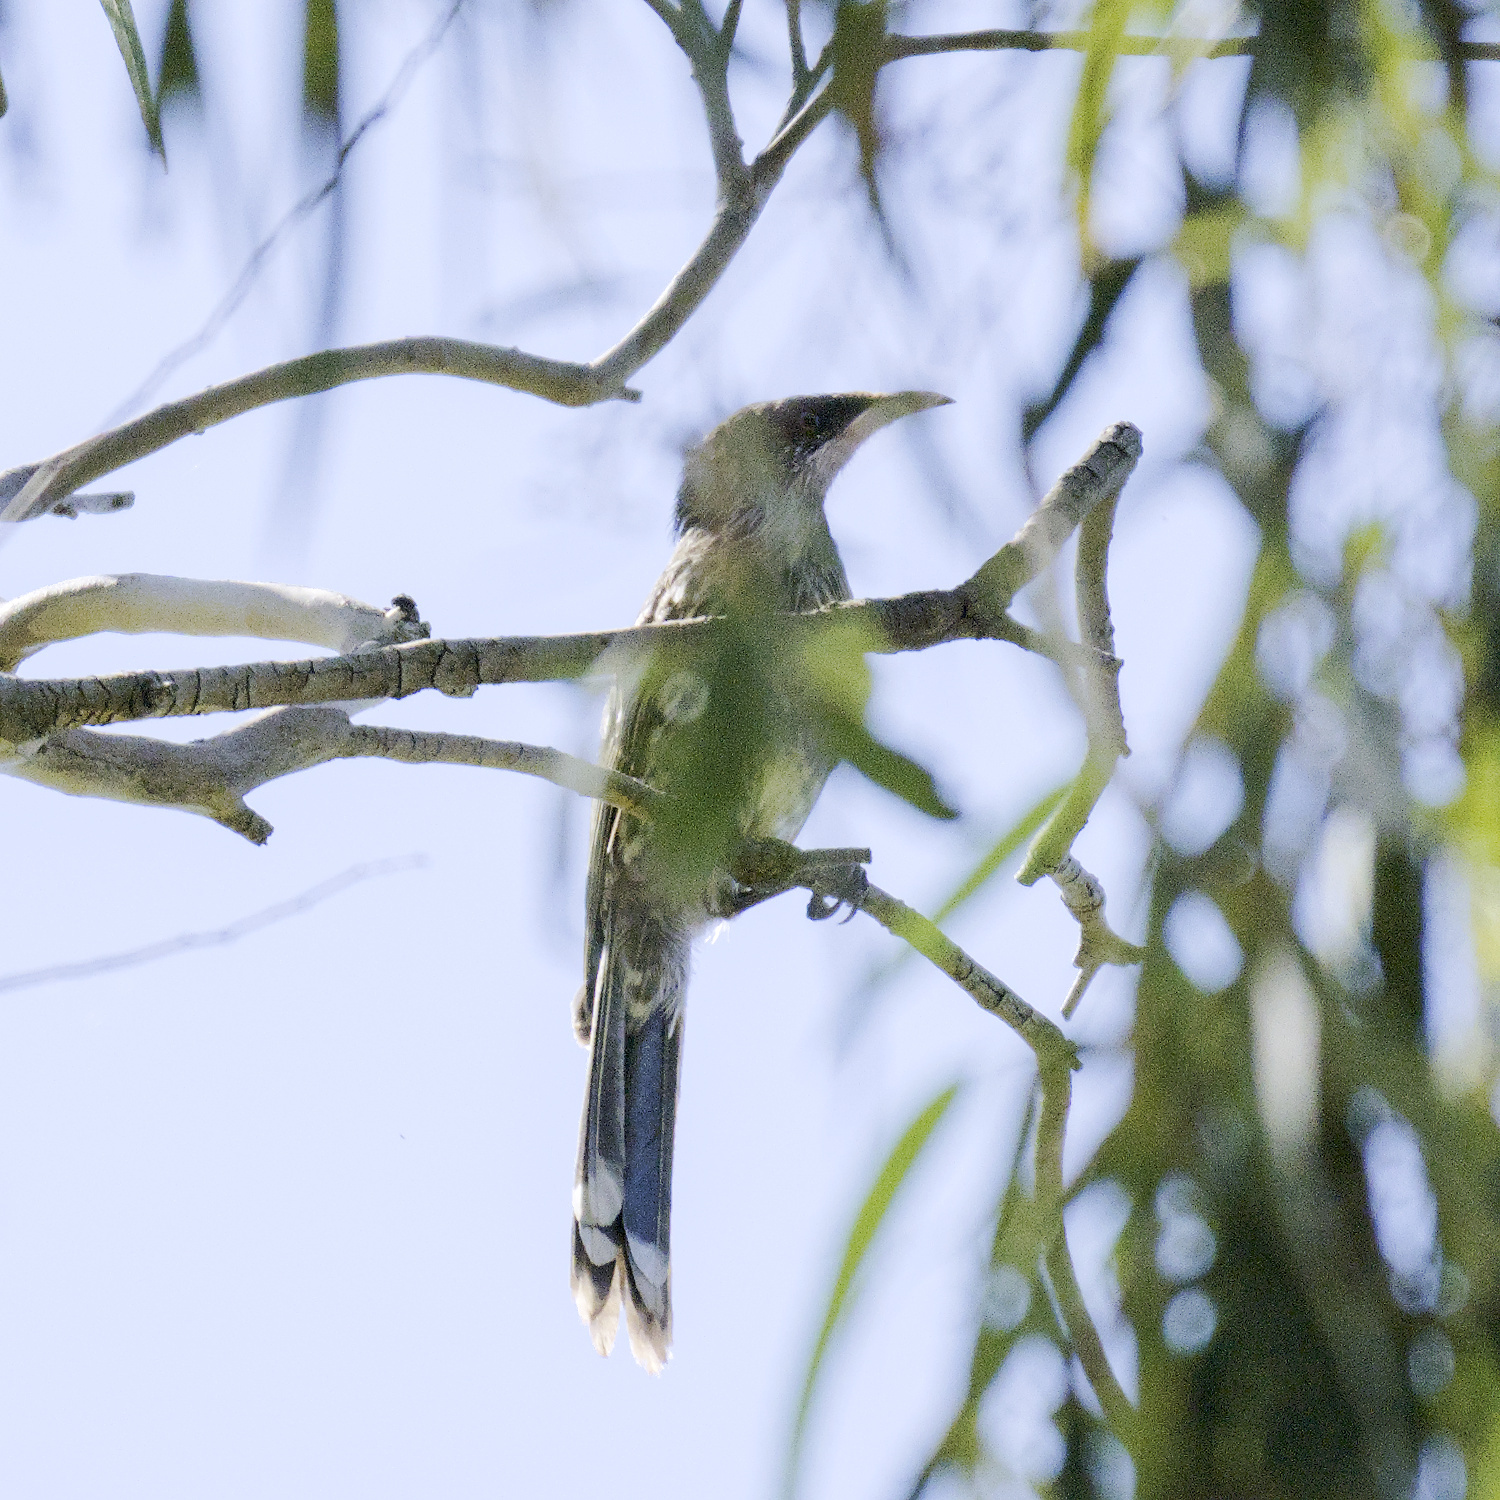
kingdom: Animalia
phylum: Chordata
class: Aves
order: Passeriformes
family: Meliphagidae
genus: Anthochaera
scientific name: Anthochaera chrysoptera
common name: Little wattlebird
